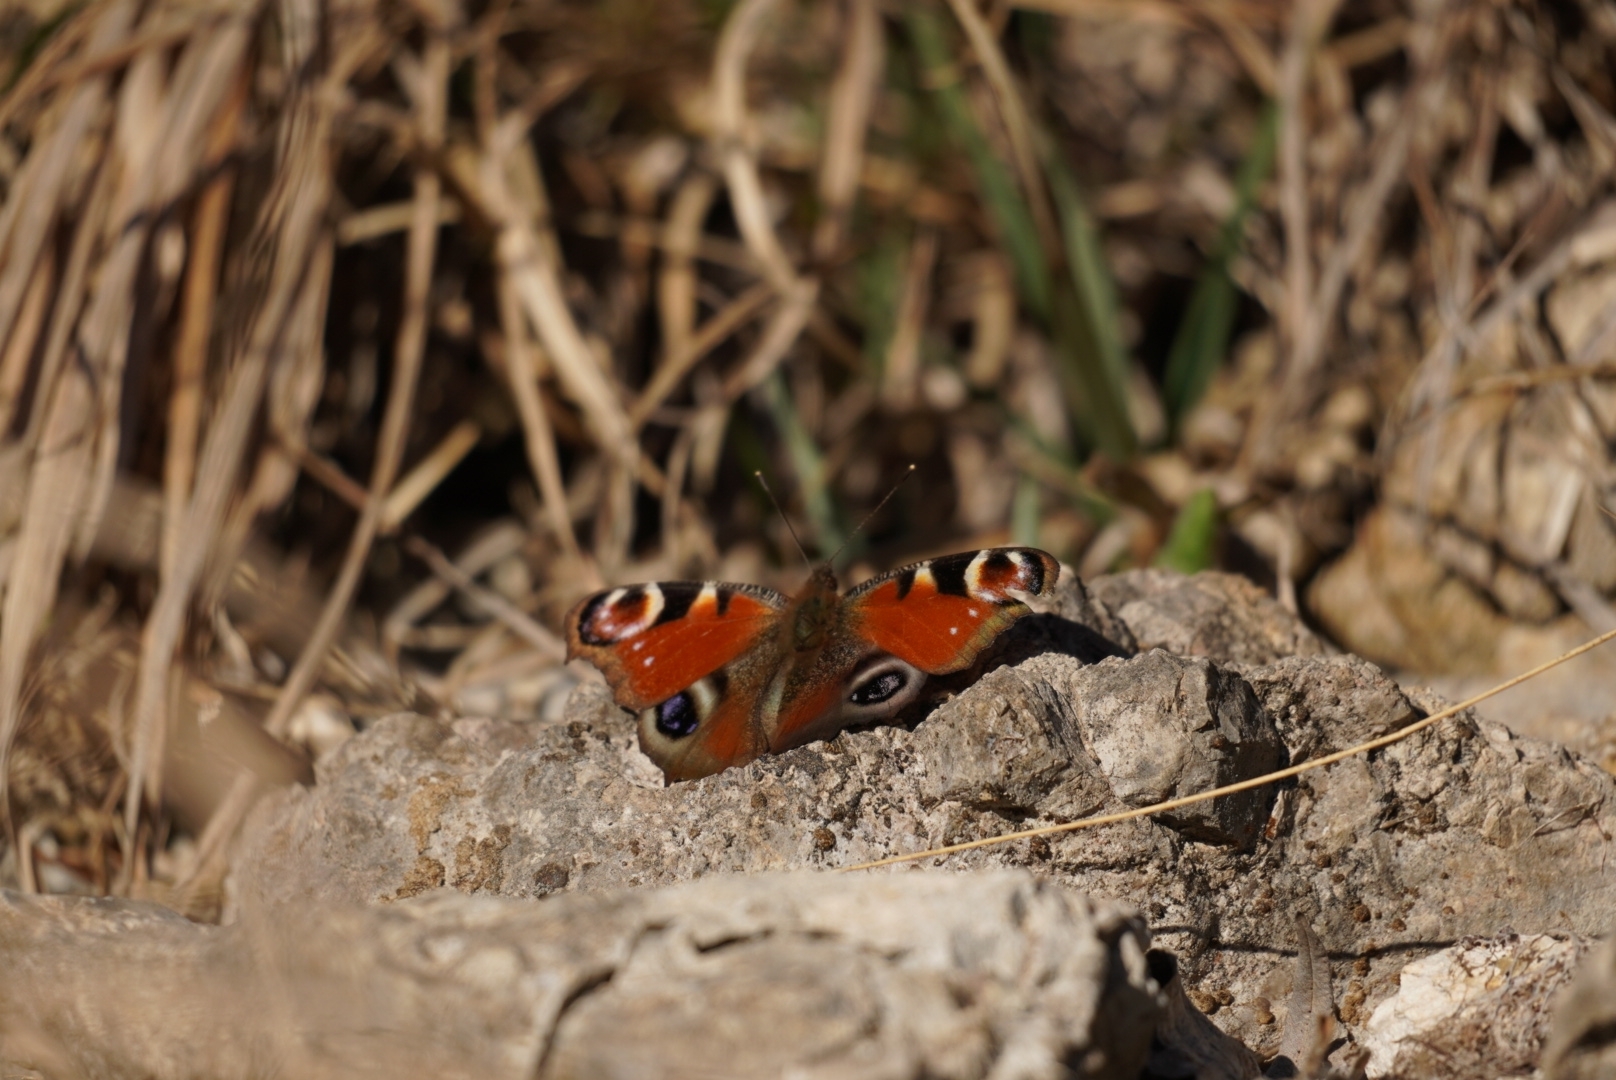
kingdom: Animalia
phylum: Arthropoda
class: Insecta
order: Lepidoptera
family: Nymphalidae
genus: Aglais
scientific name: Aglais io
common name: Peacock
